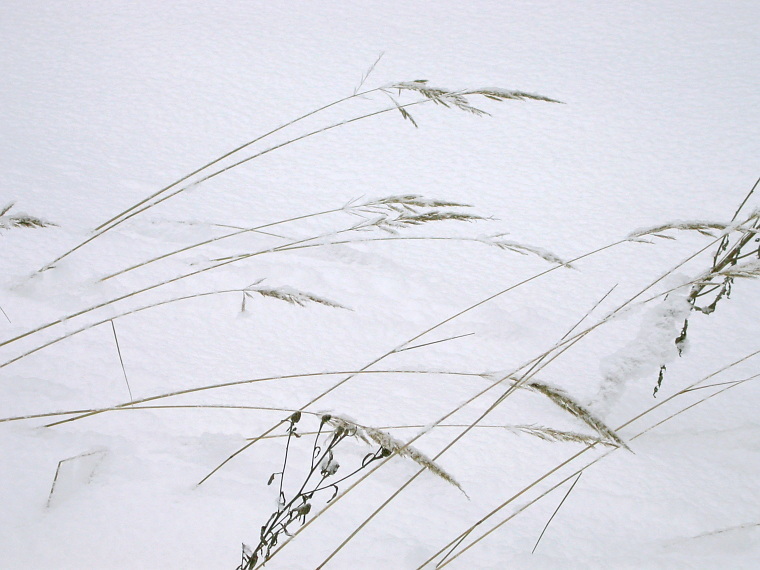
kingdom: Plantae
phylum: Tracheophyta
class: Liliopsida
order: Poales
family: Poaceae
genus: Calamagrostis
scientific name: Calamagrostis epigejos
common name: Wood small-reed
